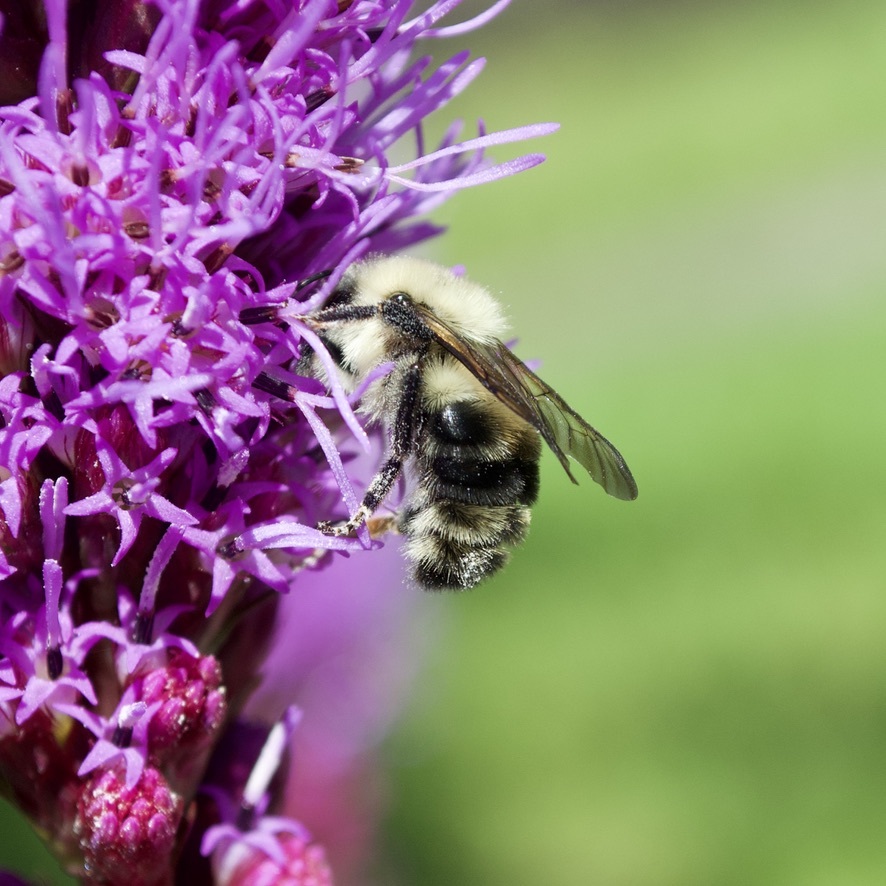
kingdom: Animalia
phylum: Arthropoda
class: Insecta
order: Hymenoptera
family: Apidae
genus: Bombus
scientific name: Bombus bimaculatus
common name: Two-spotted bumble bee
